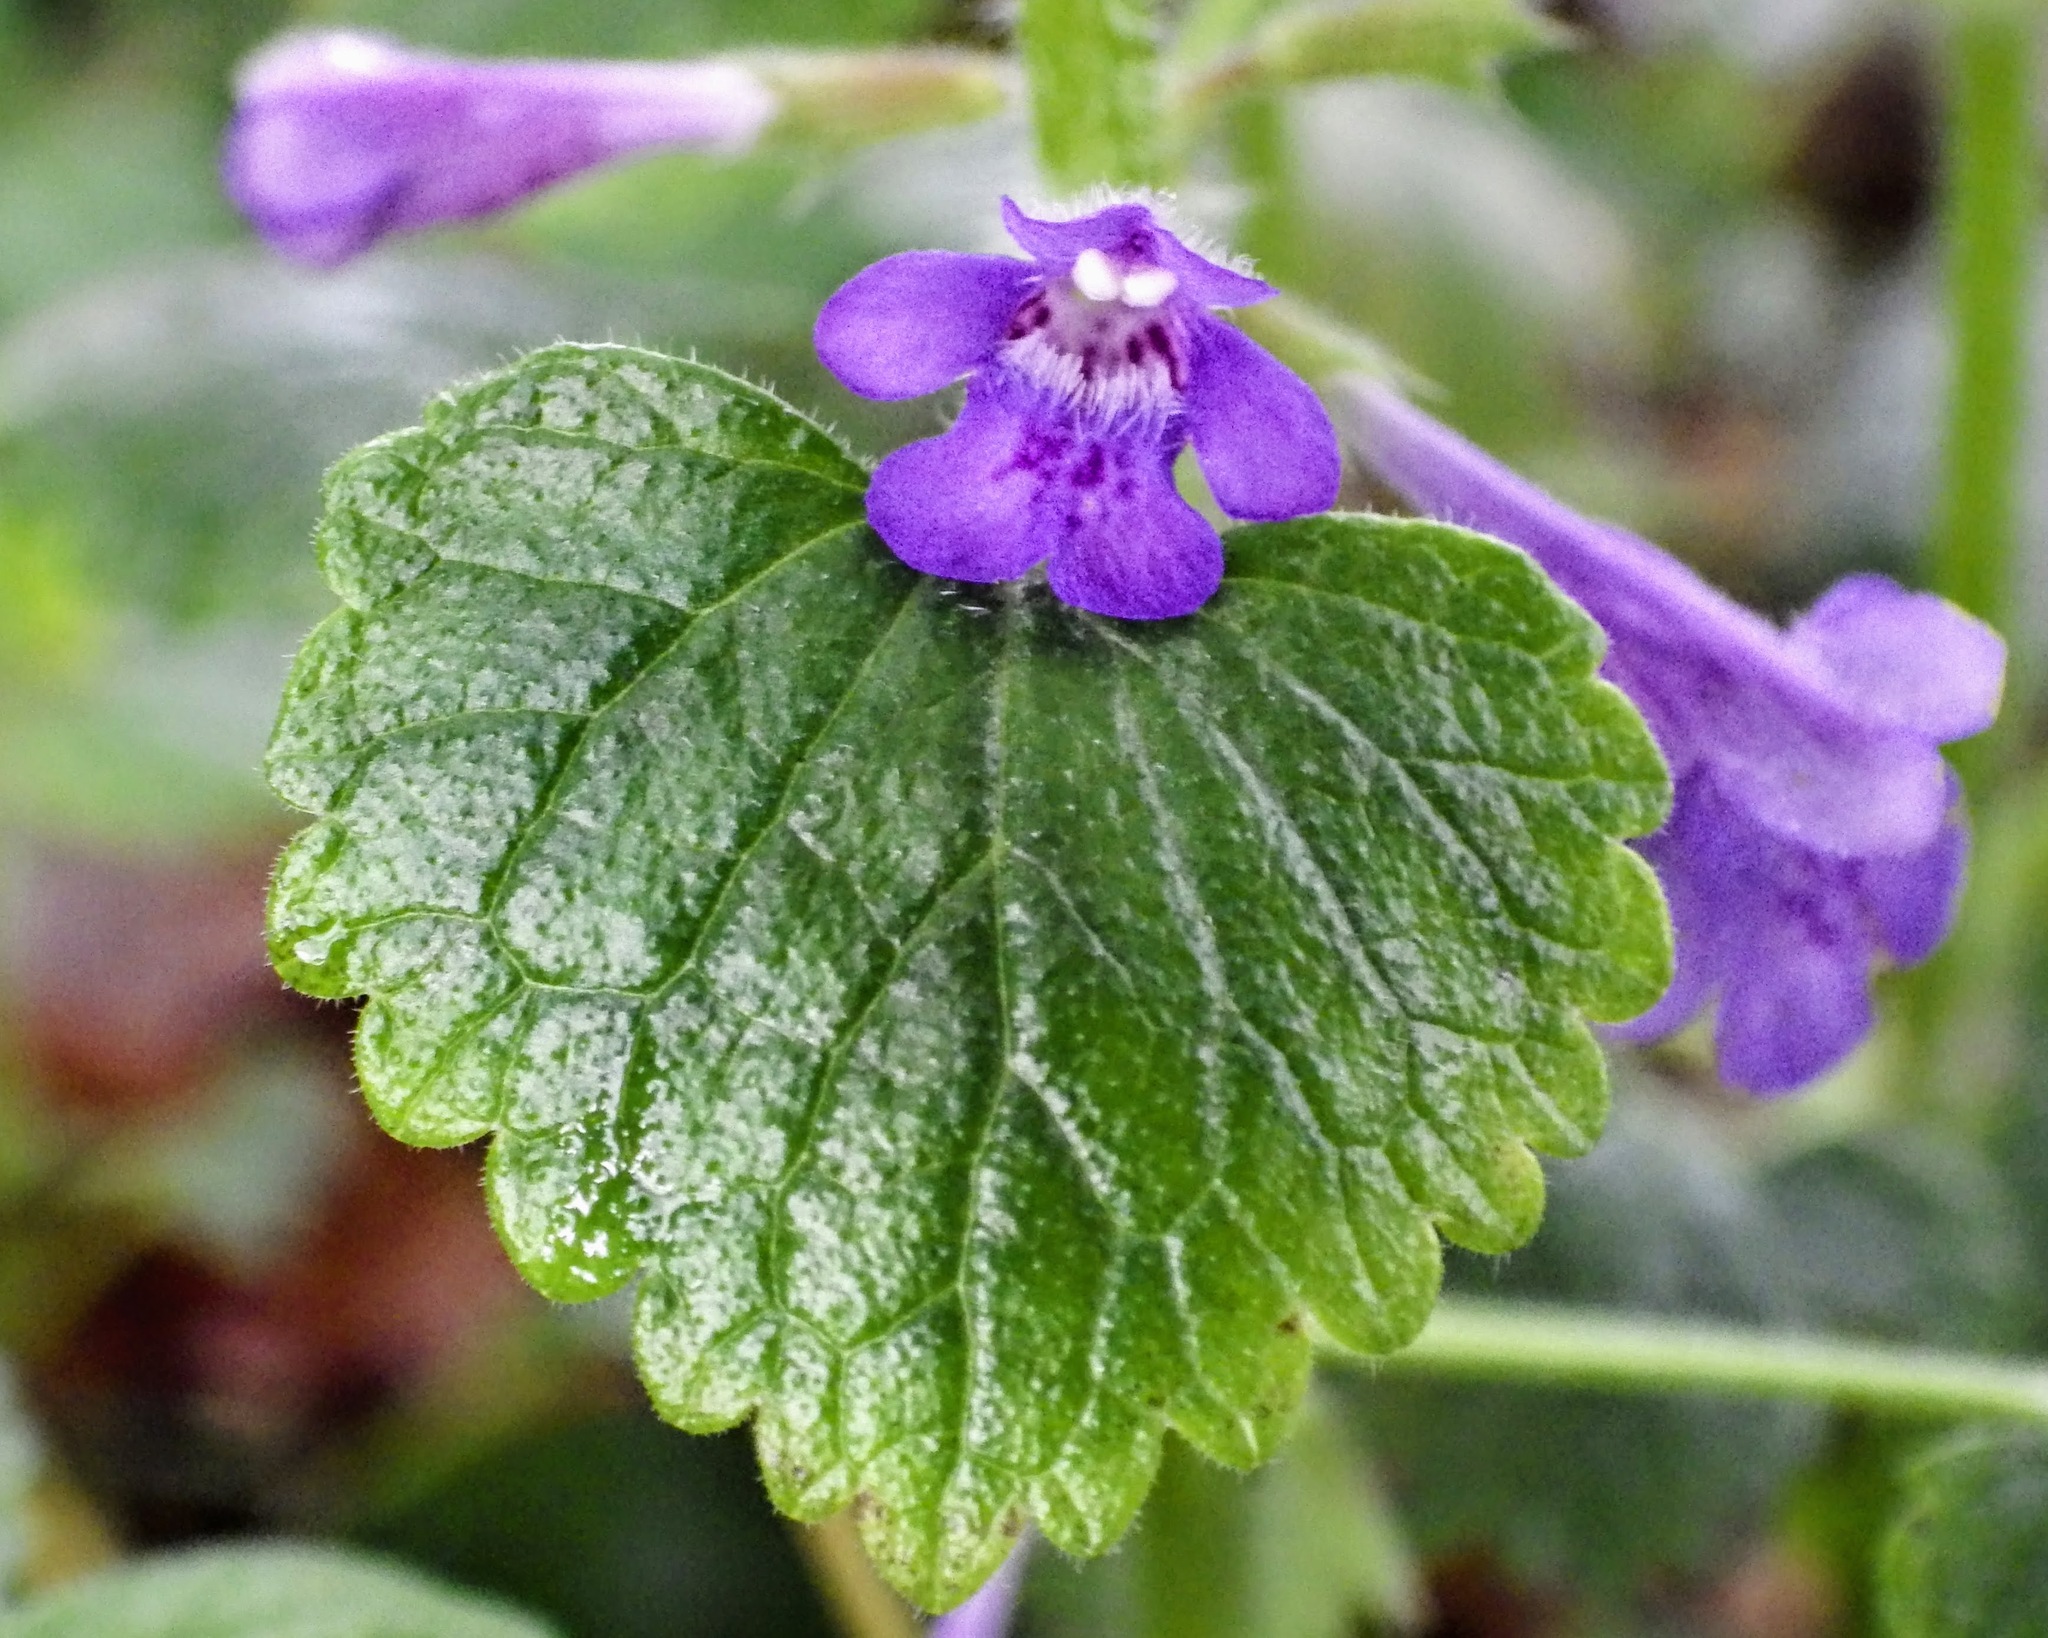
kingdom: Plantae
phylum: Tracheophyta
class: Magnoliopsida
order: Lamiales
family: Lamiaceae
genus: Glechoma
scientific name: Glechoma hederacea
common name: Ground ivy
